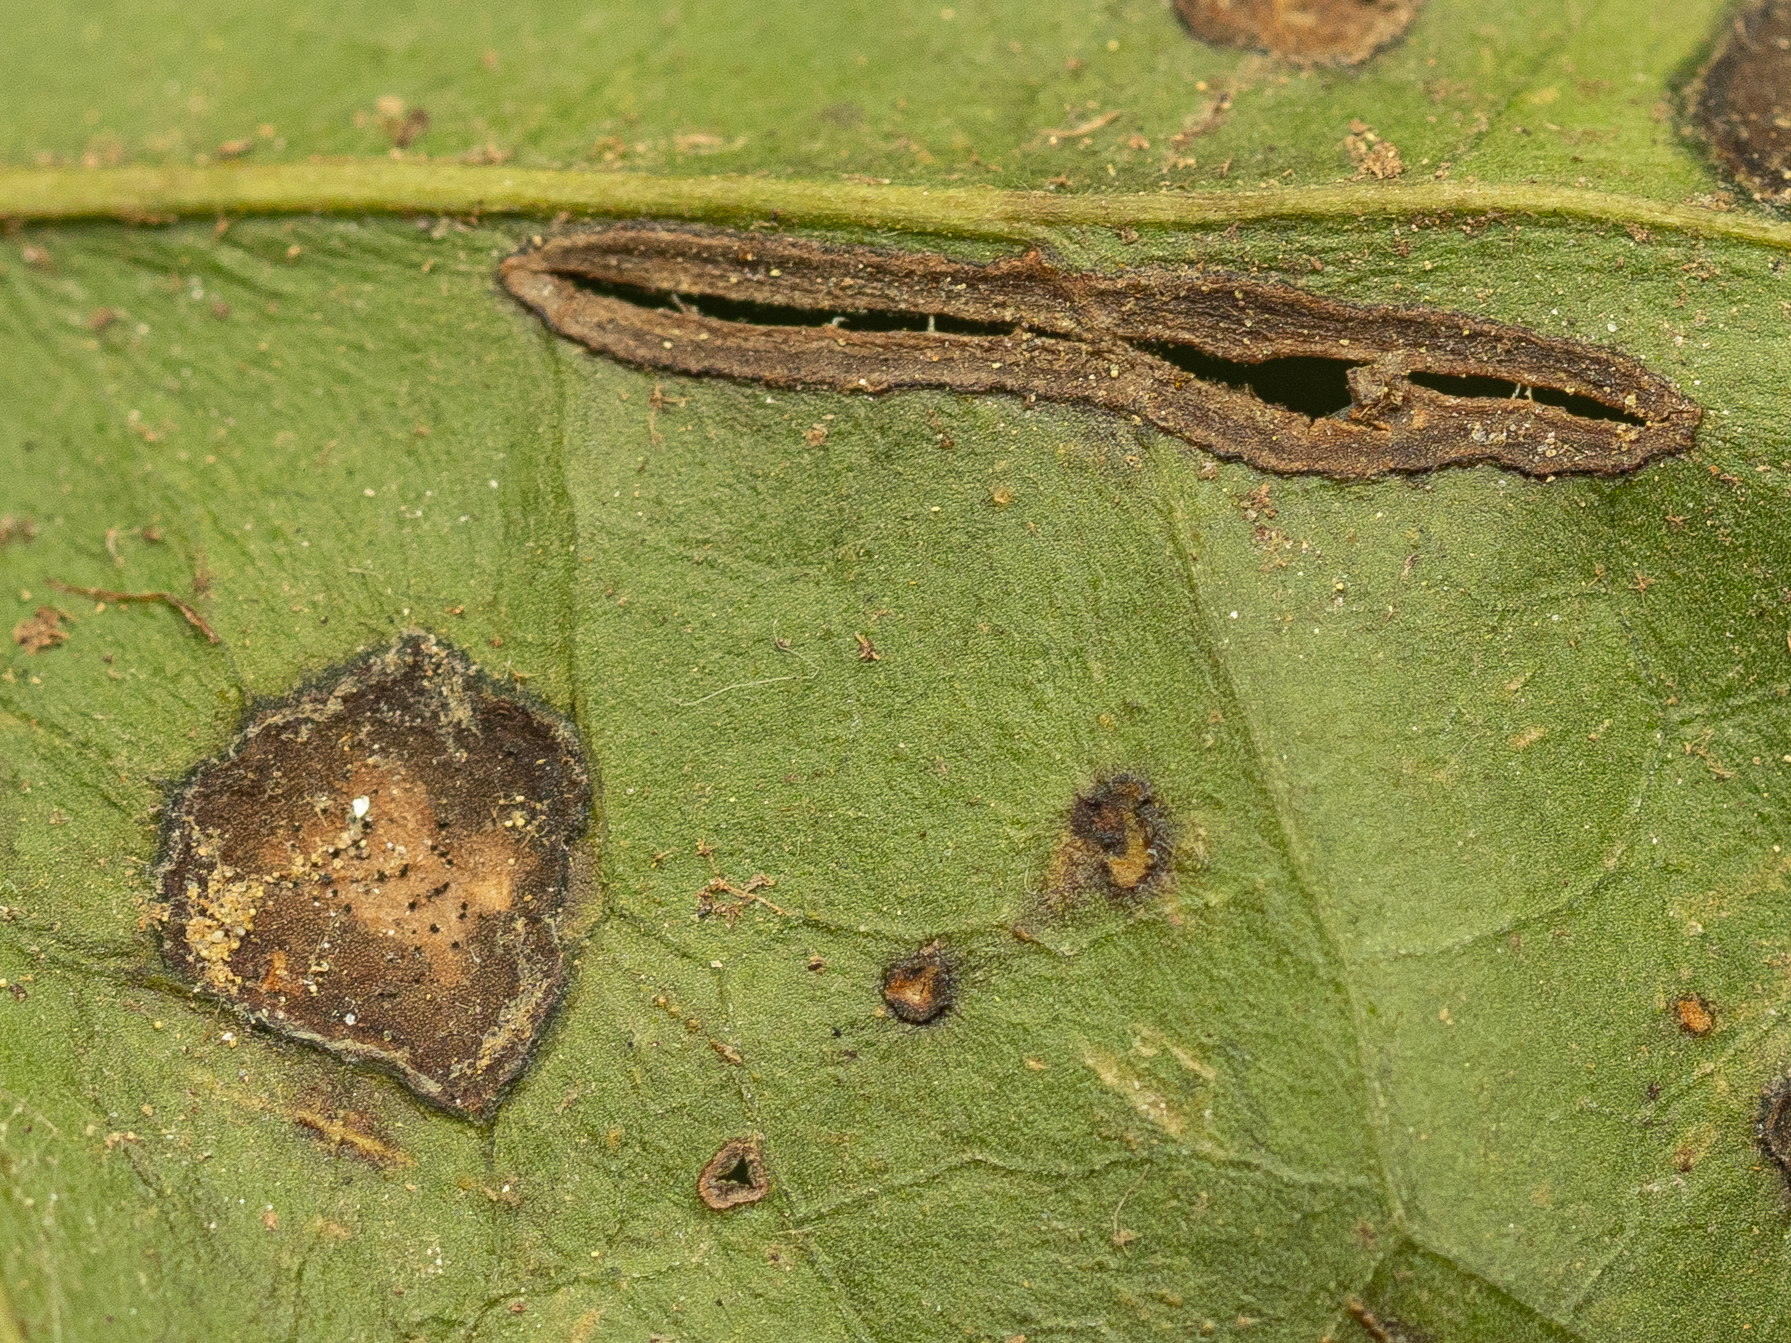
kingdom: Fungi
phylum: Ascomycota
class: Sordariomycetes
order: Glomerellales
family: Glomerellaceae
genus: Colletotrichum
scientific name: Colletotrichum trichellum
